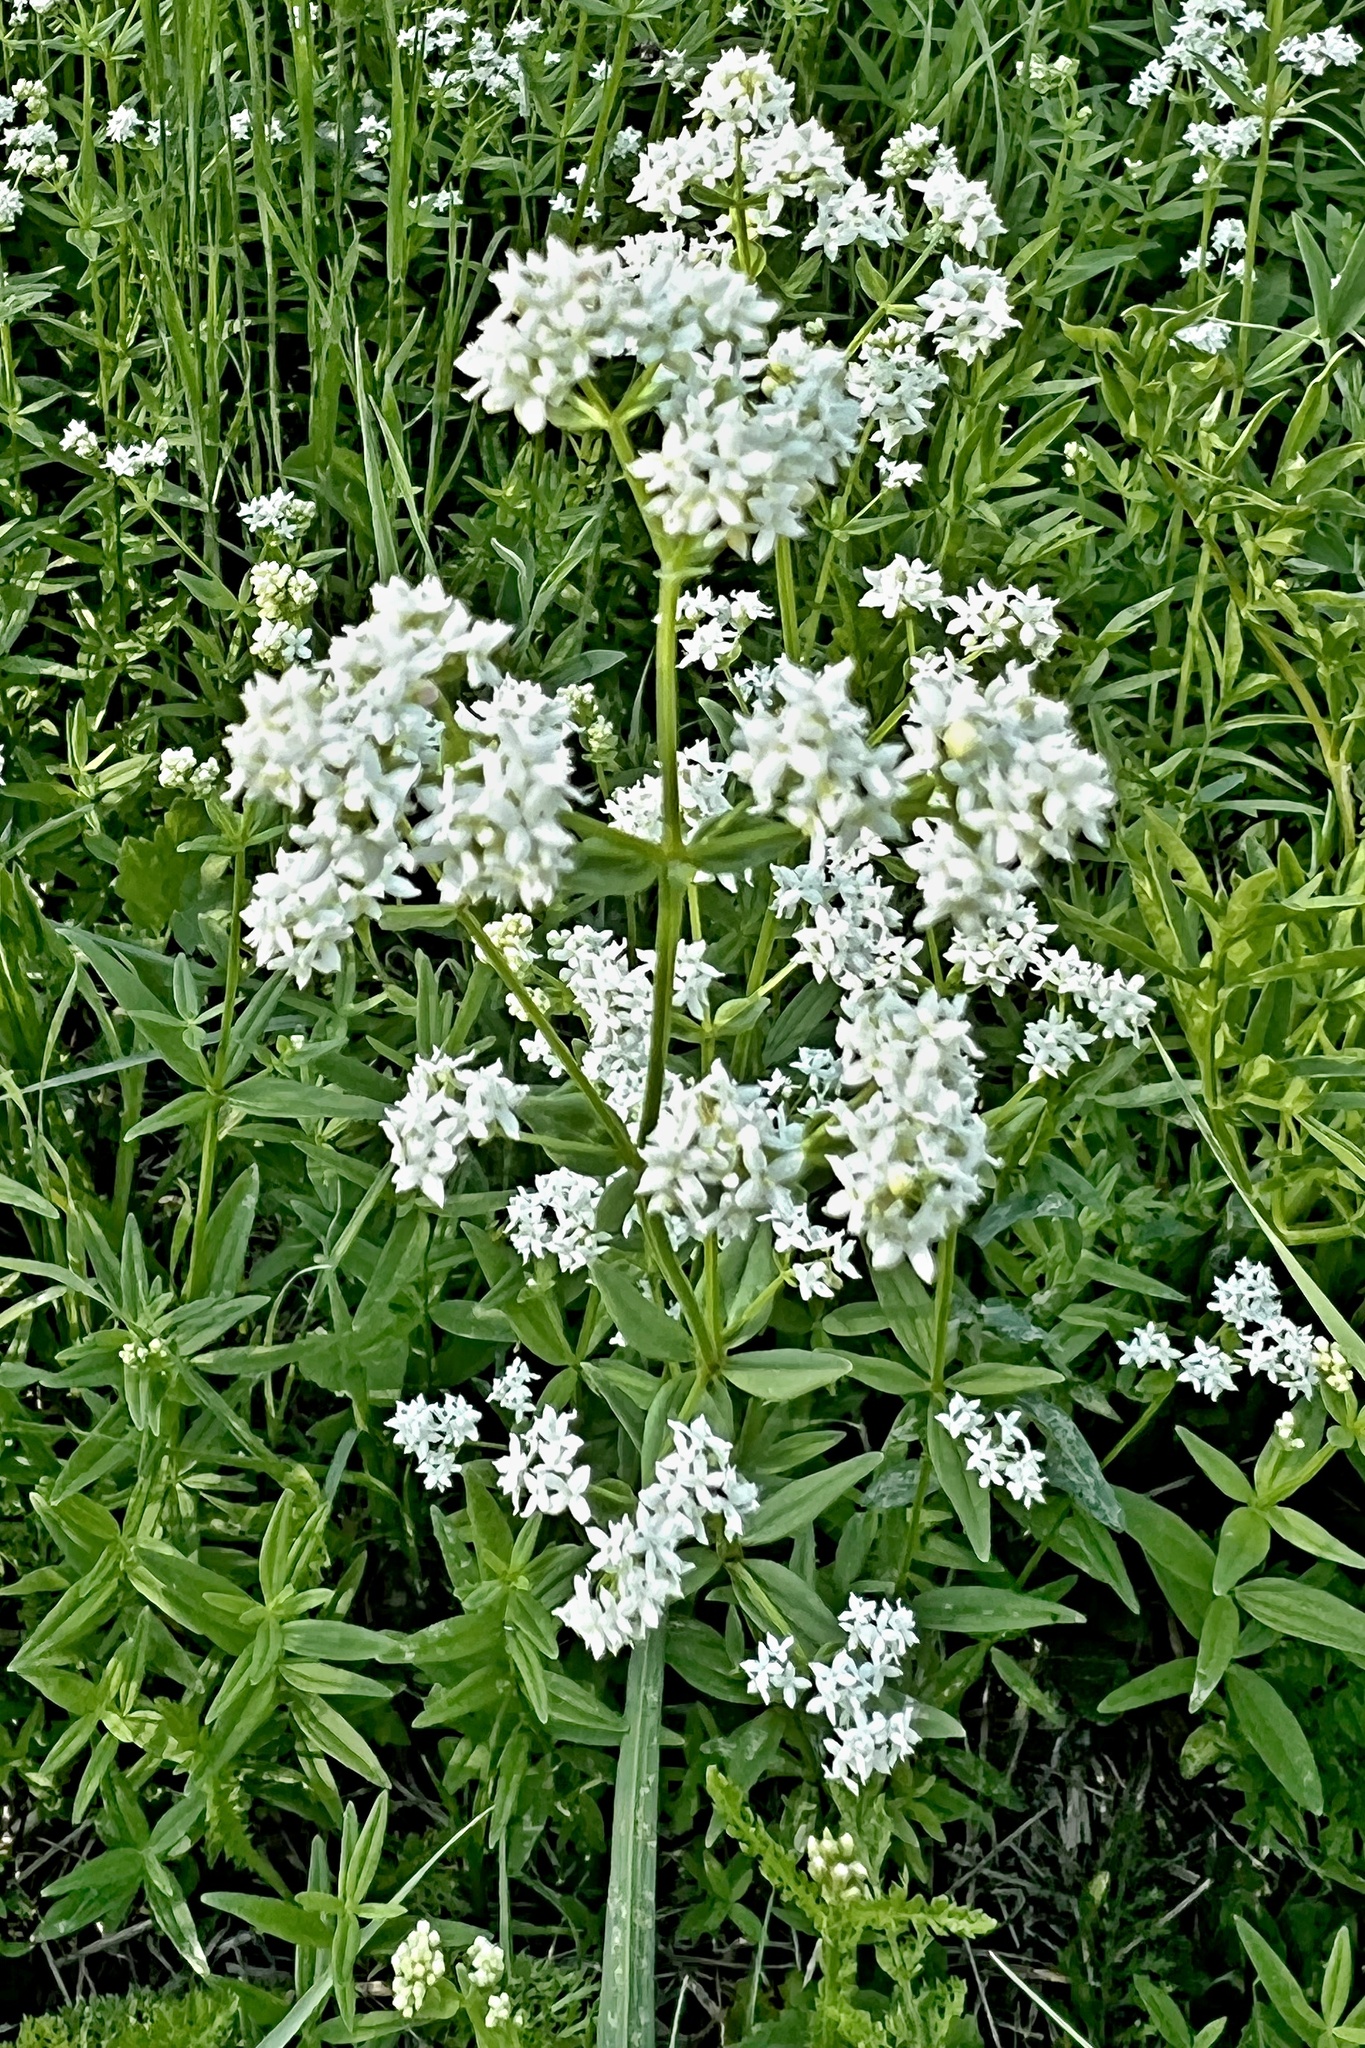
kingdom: Plantae
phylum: Tracheophyta
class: Magnoliopsida
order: Gentianales
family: Rubiaceae
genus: Galium
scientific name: Galium boreale
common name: Northern bedstraw
